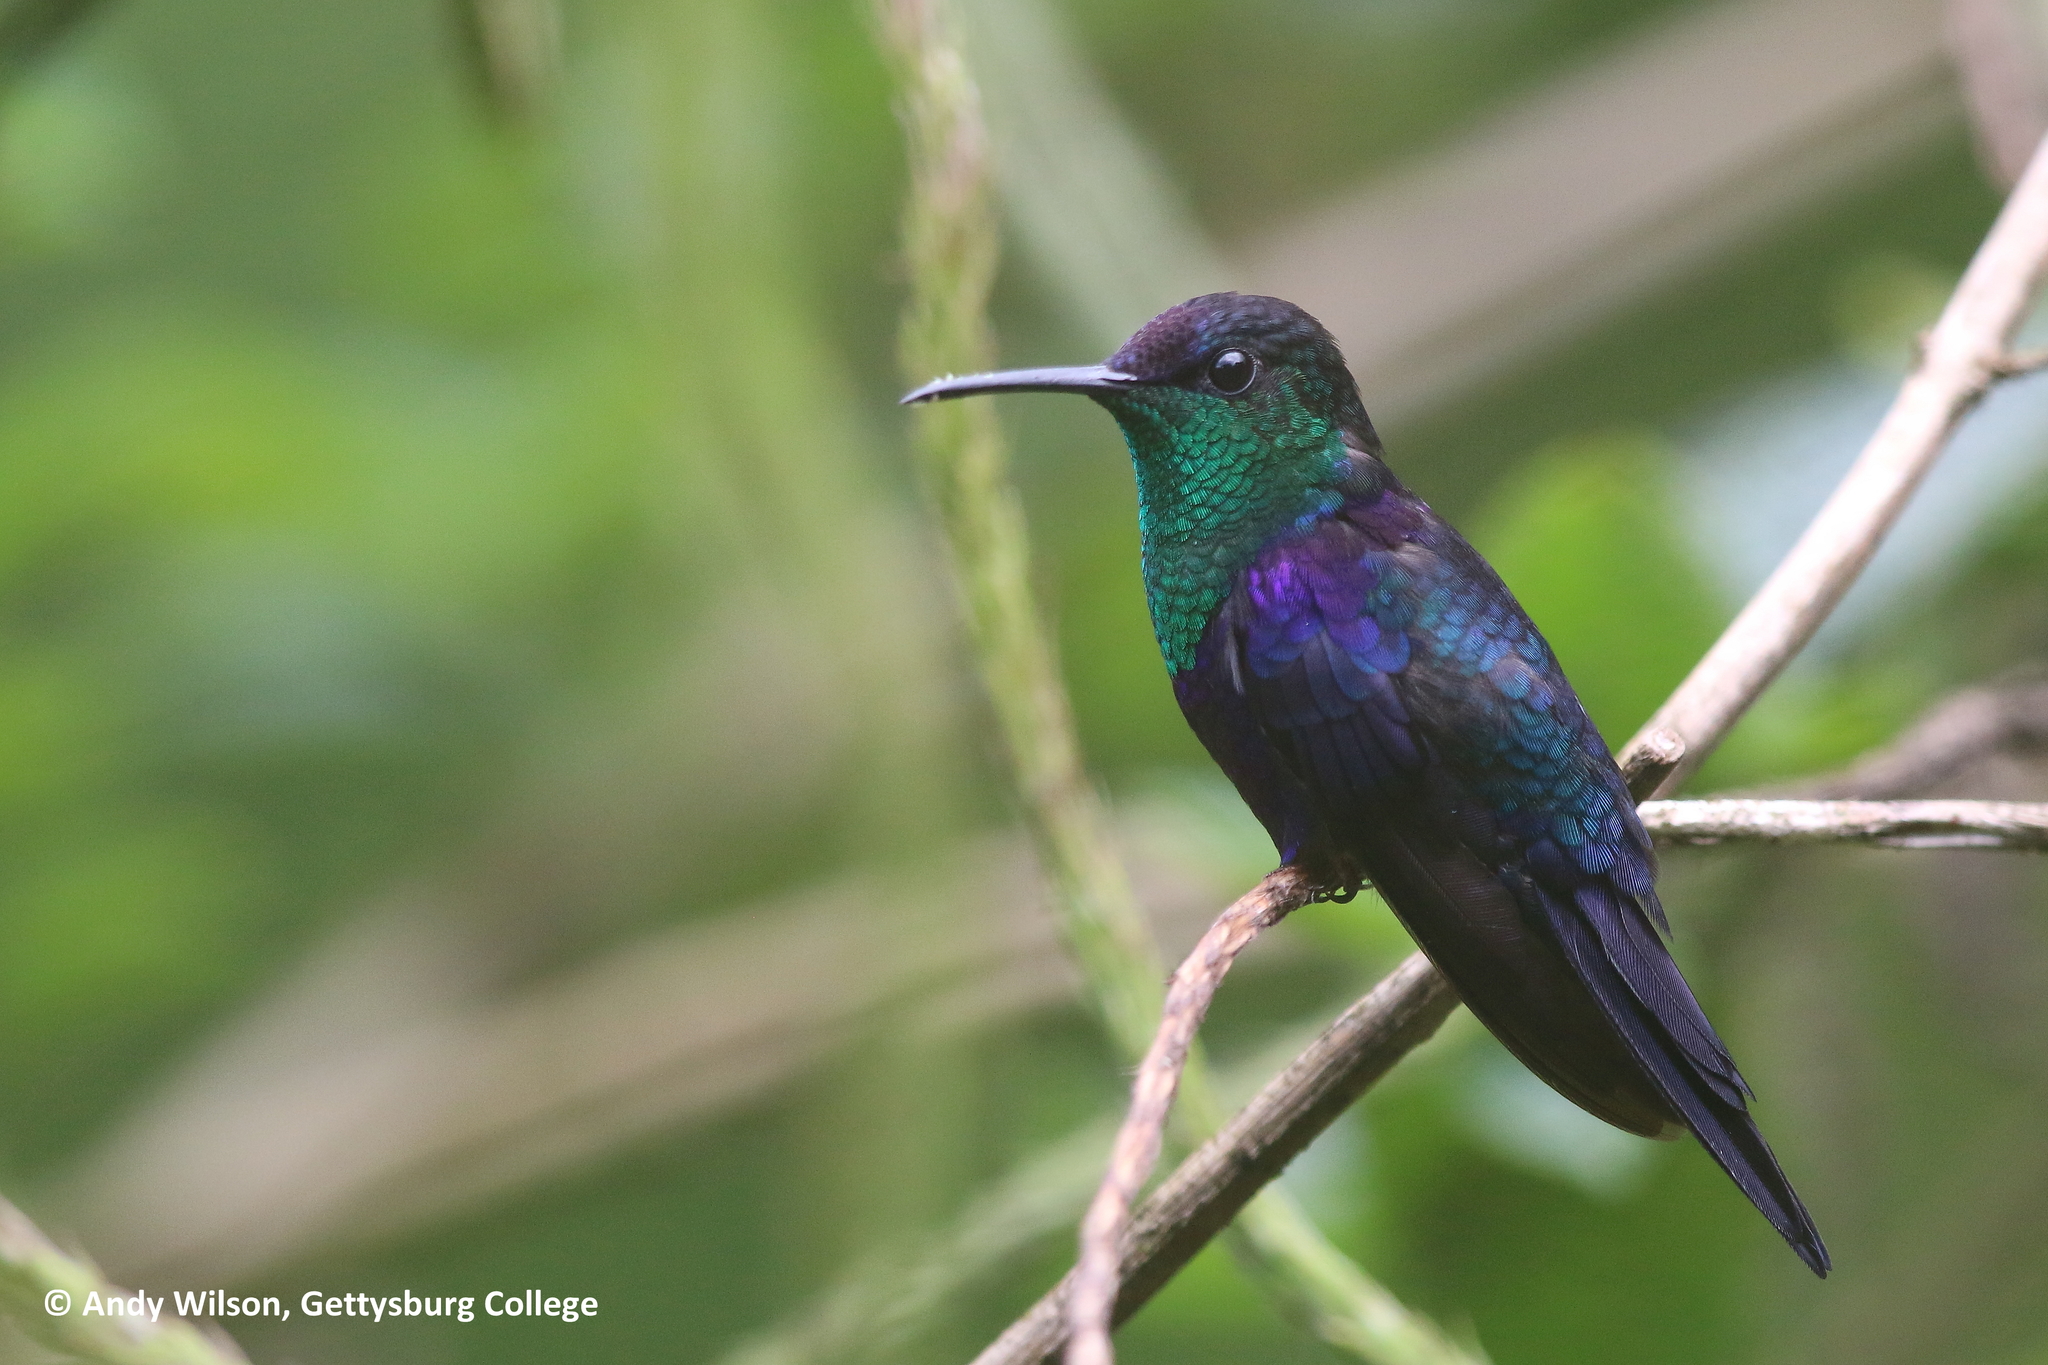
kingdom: Animalia
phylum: Chordata
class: Aves
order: Apodiformes
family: Trochilidae
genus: Thalurania
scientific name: Thalurania colombica
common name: Crowned woodnymph
